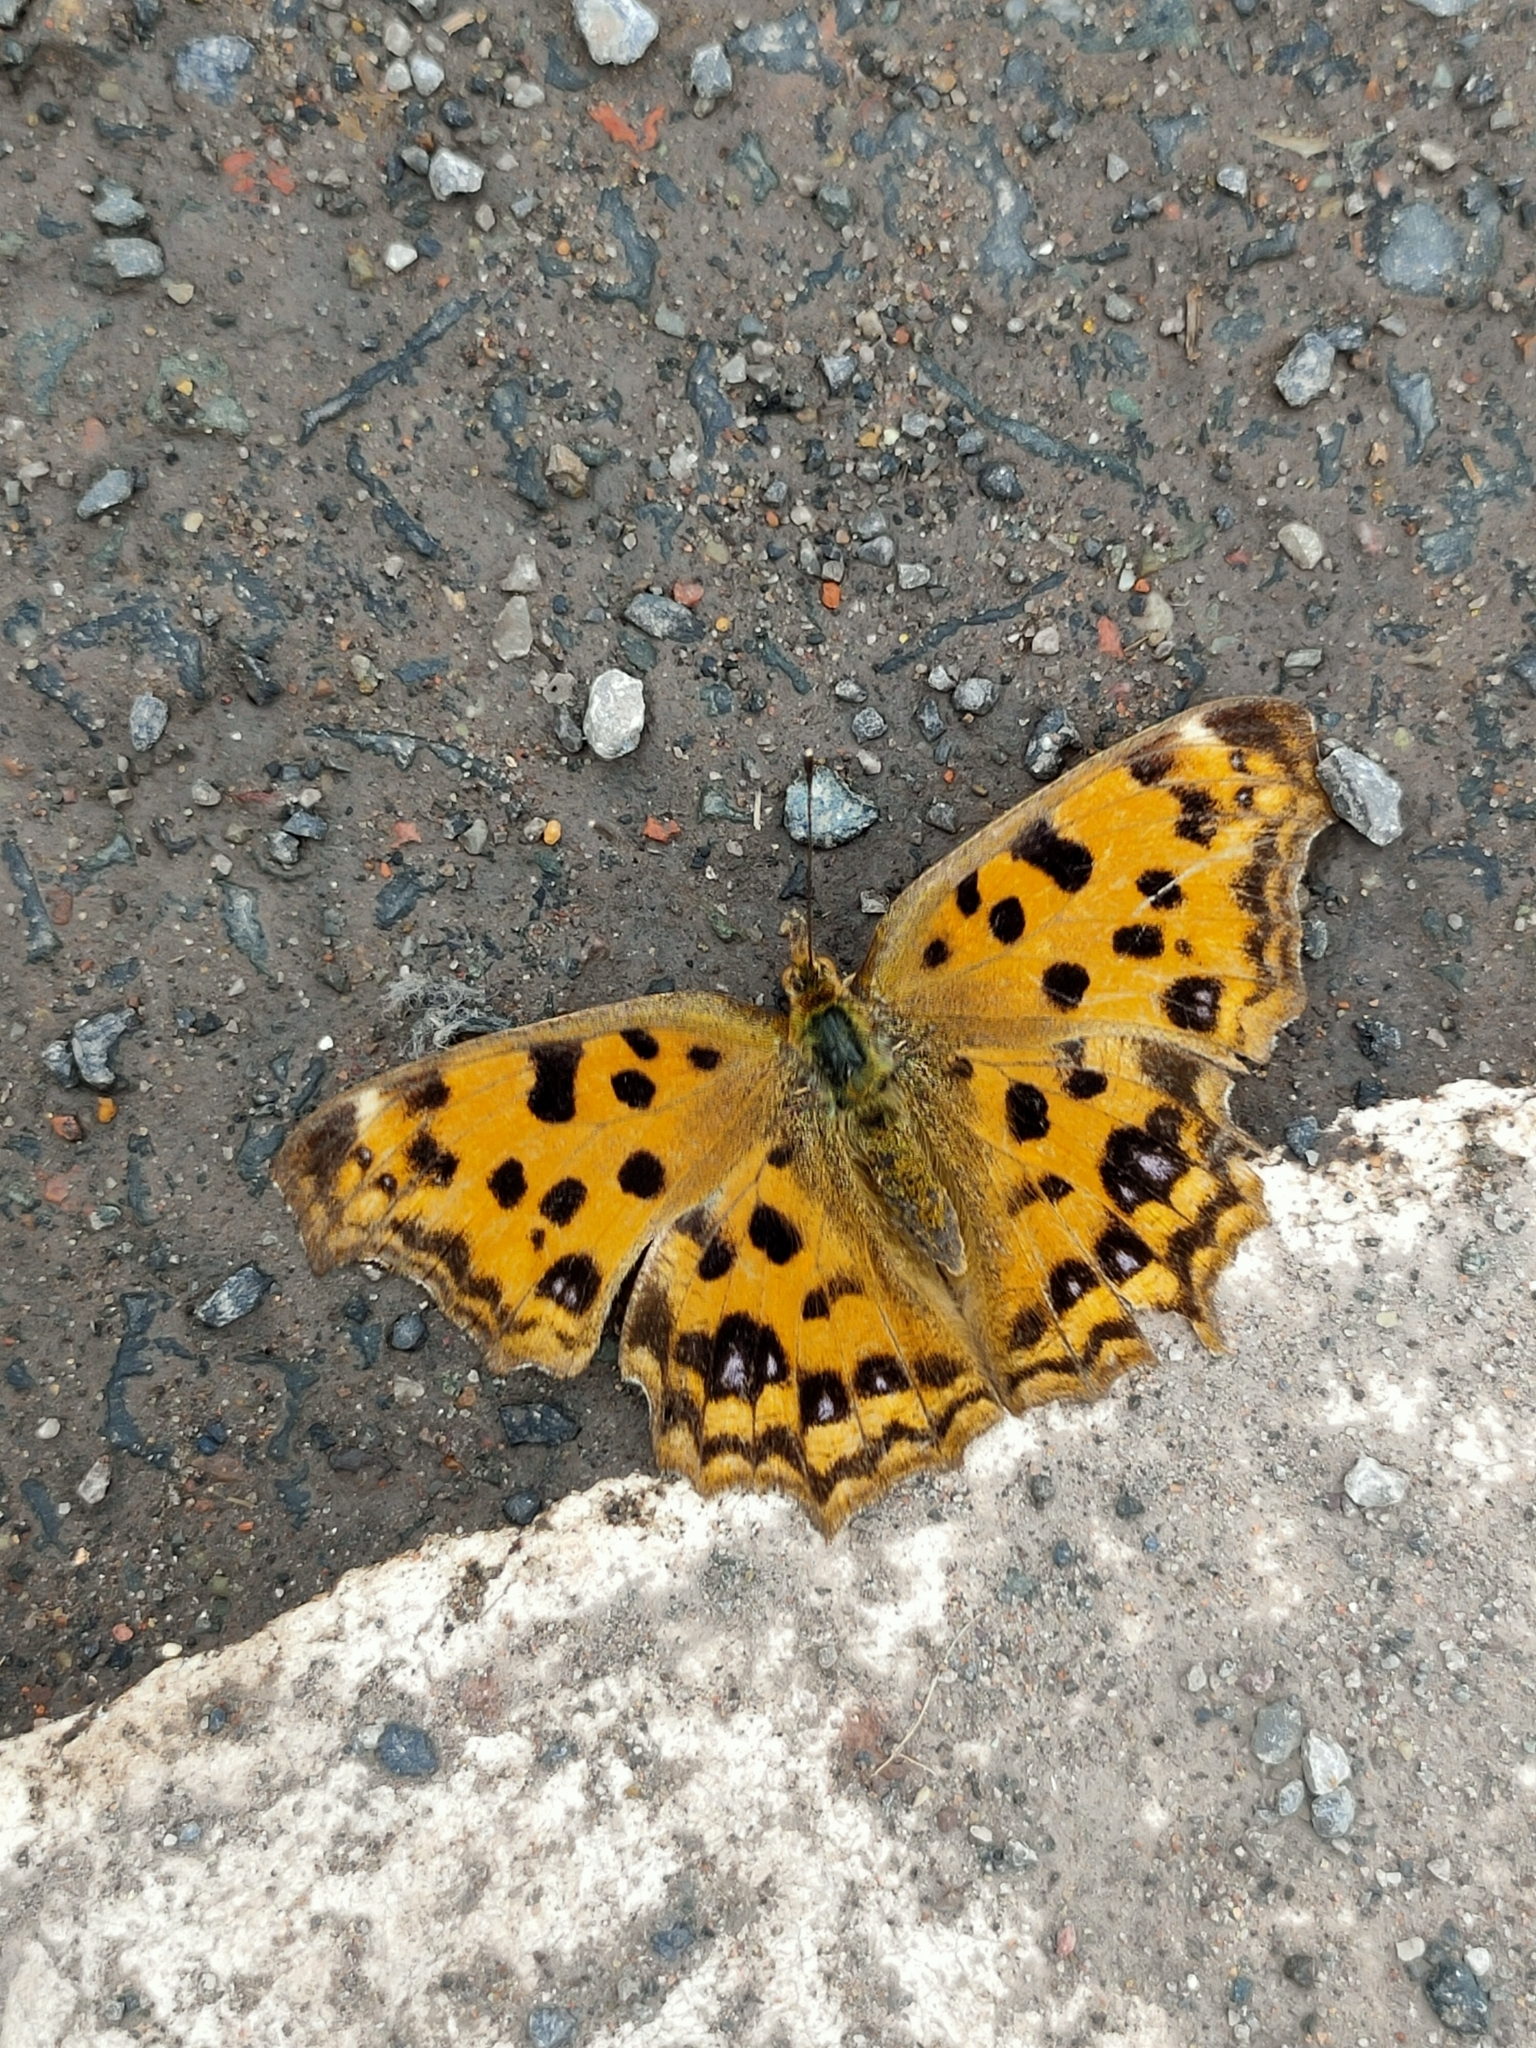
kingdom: Animalia
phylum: Arthropoda
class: Insecta
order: Lepidoptera
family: Nymphalidae
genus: Polygonia
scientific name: Polygonia c-aureum
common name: Asian comma
